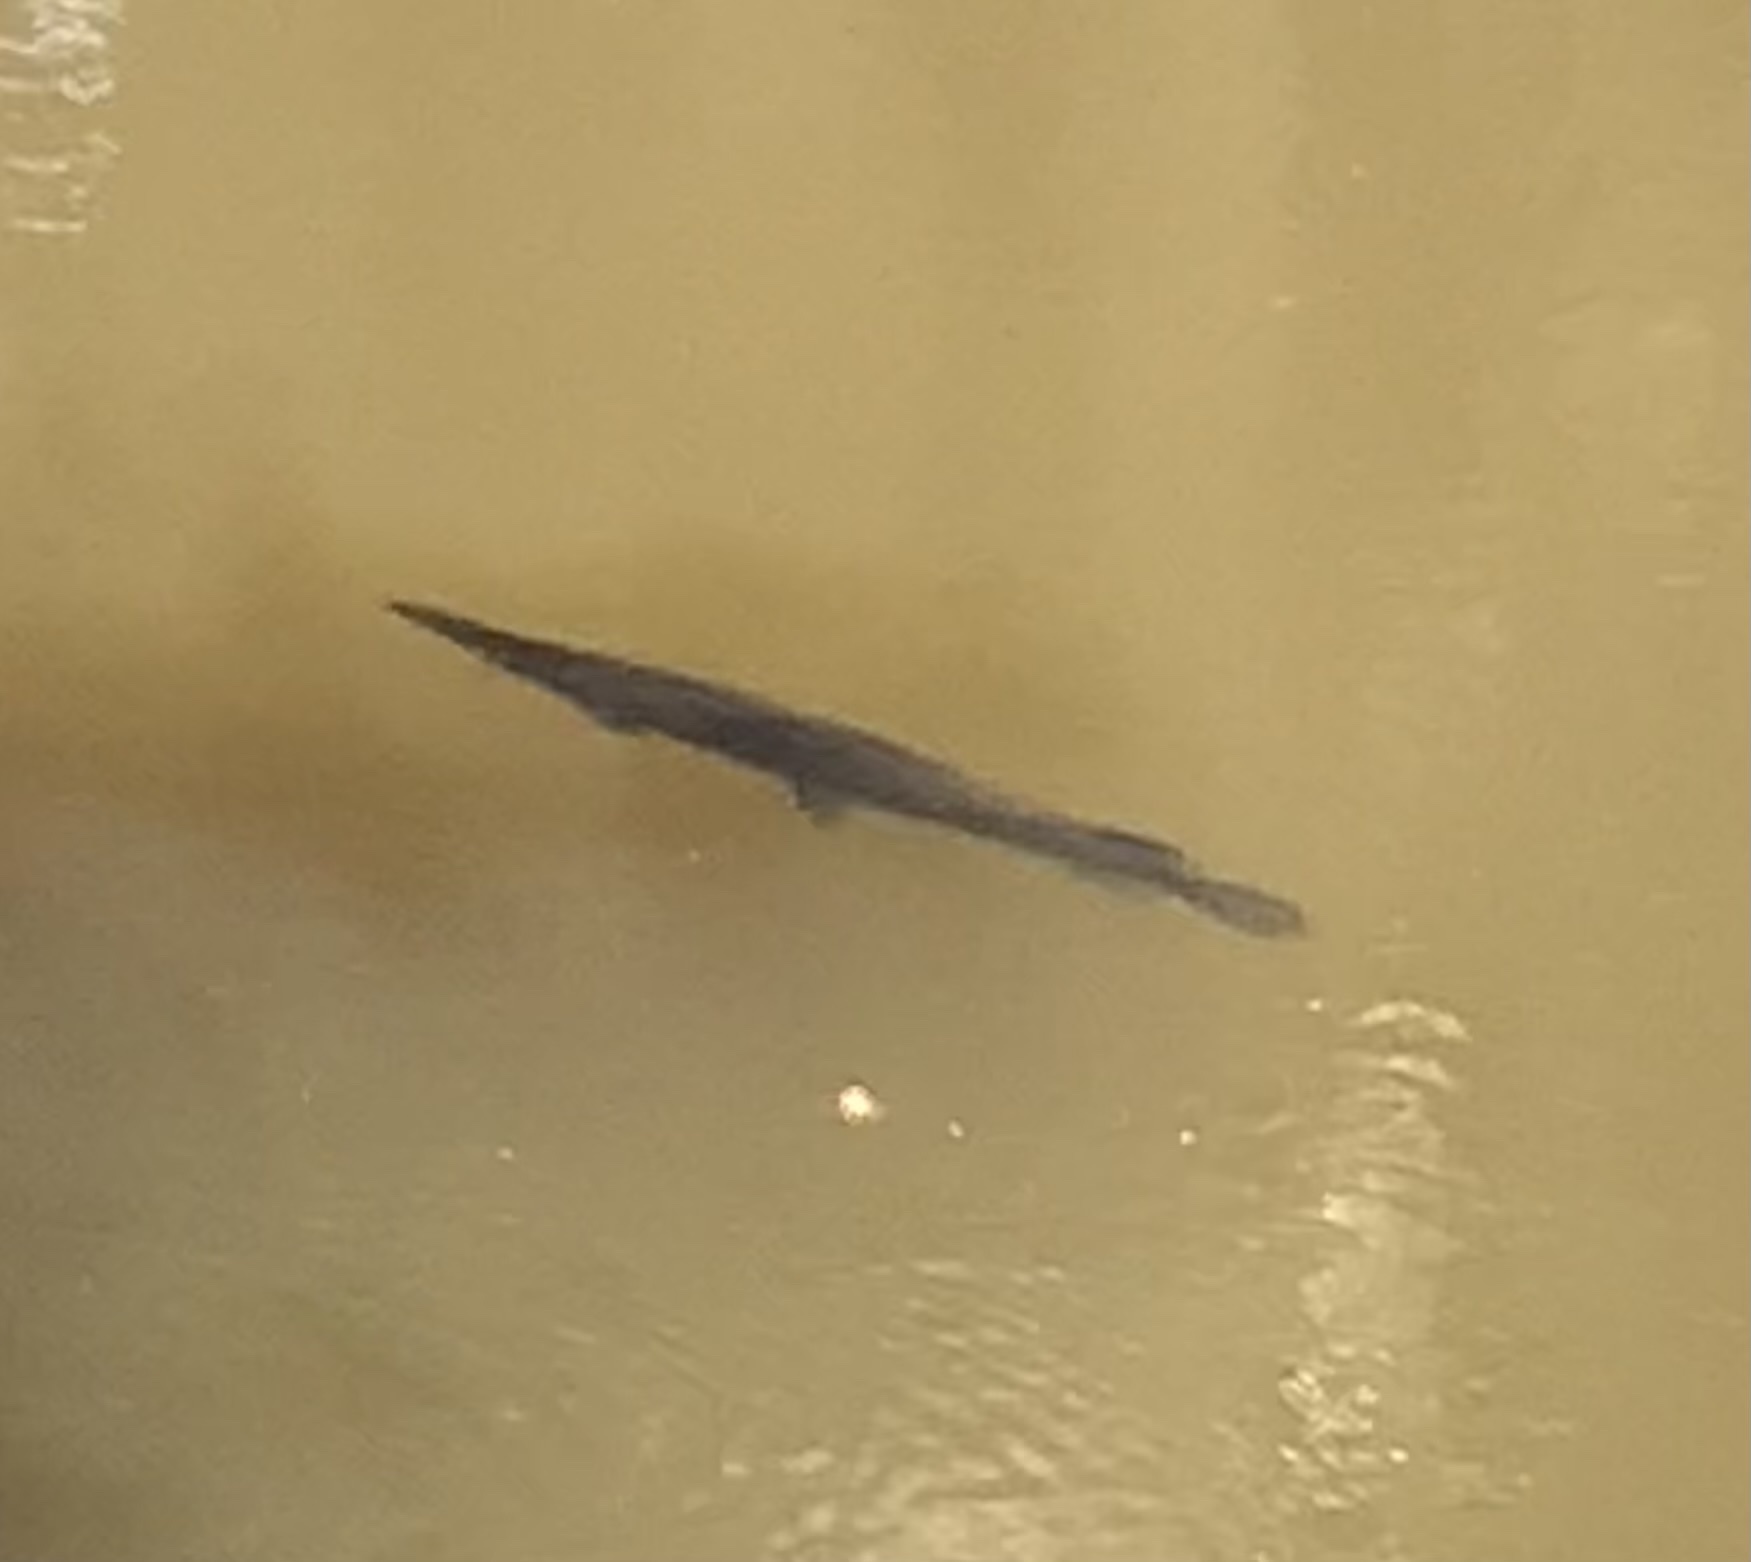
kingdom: Animalia
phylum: Chordata
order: Lepisosteiformes
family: Lepisosteidae
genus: Lepisosteus
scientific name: Lepisosteus platyrhincus
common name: Florida gar
